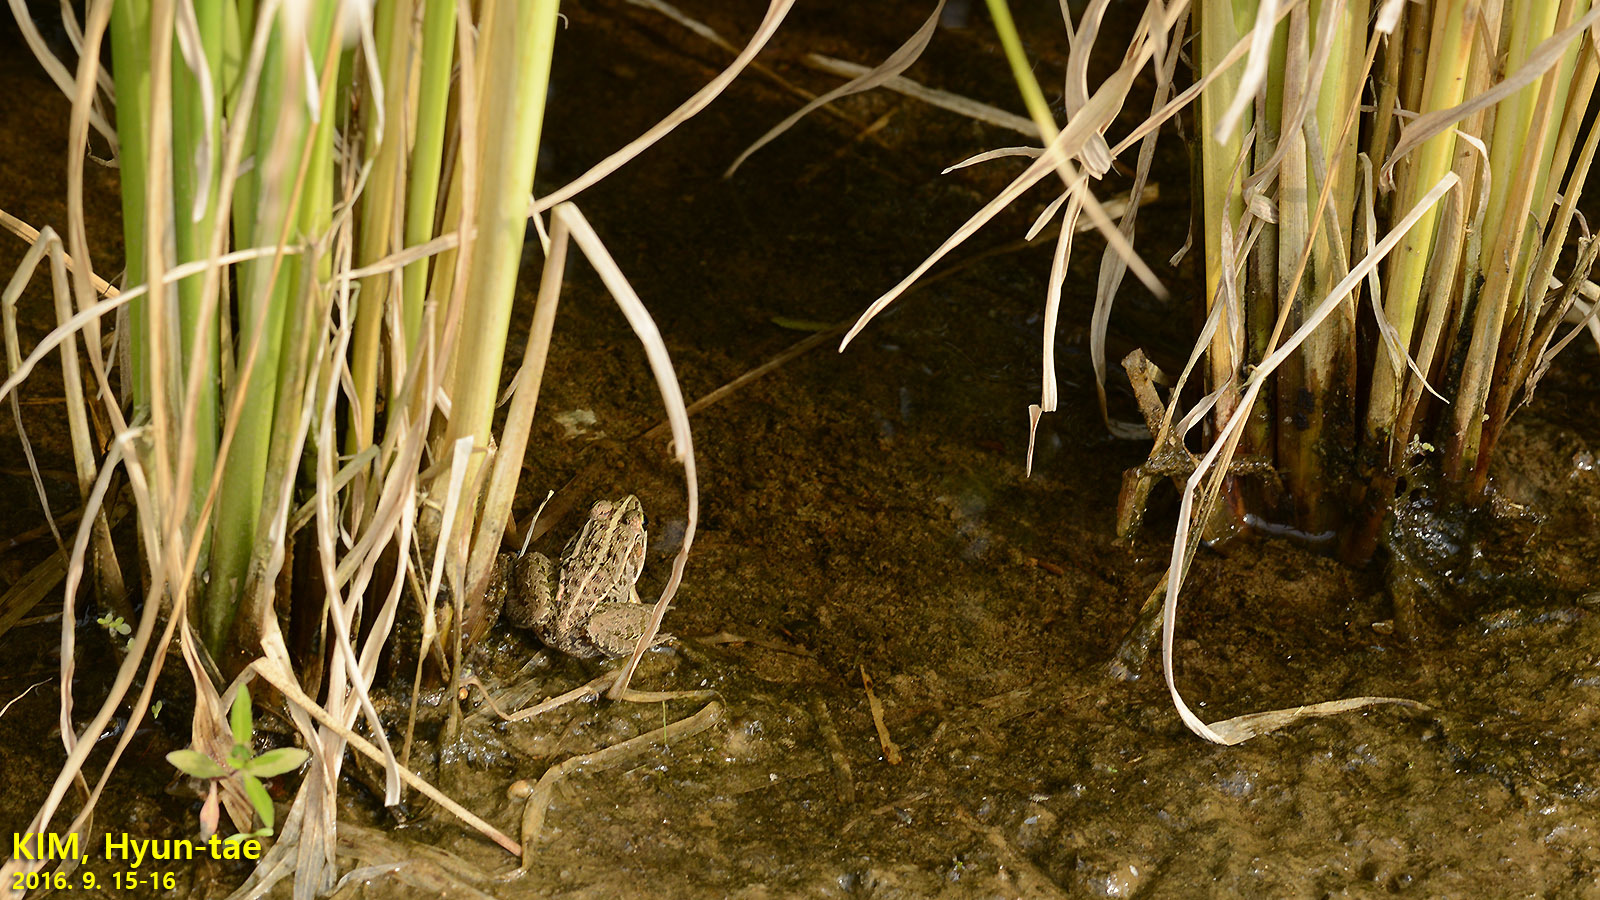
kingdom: Animalia
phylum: Chordata
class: Amphibia
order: Anura
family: Ranidae
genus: Pelophylax
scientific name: Pelophylax nigromaculatus
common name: Black-spotted pond frog
